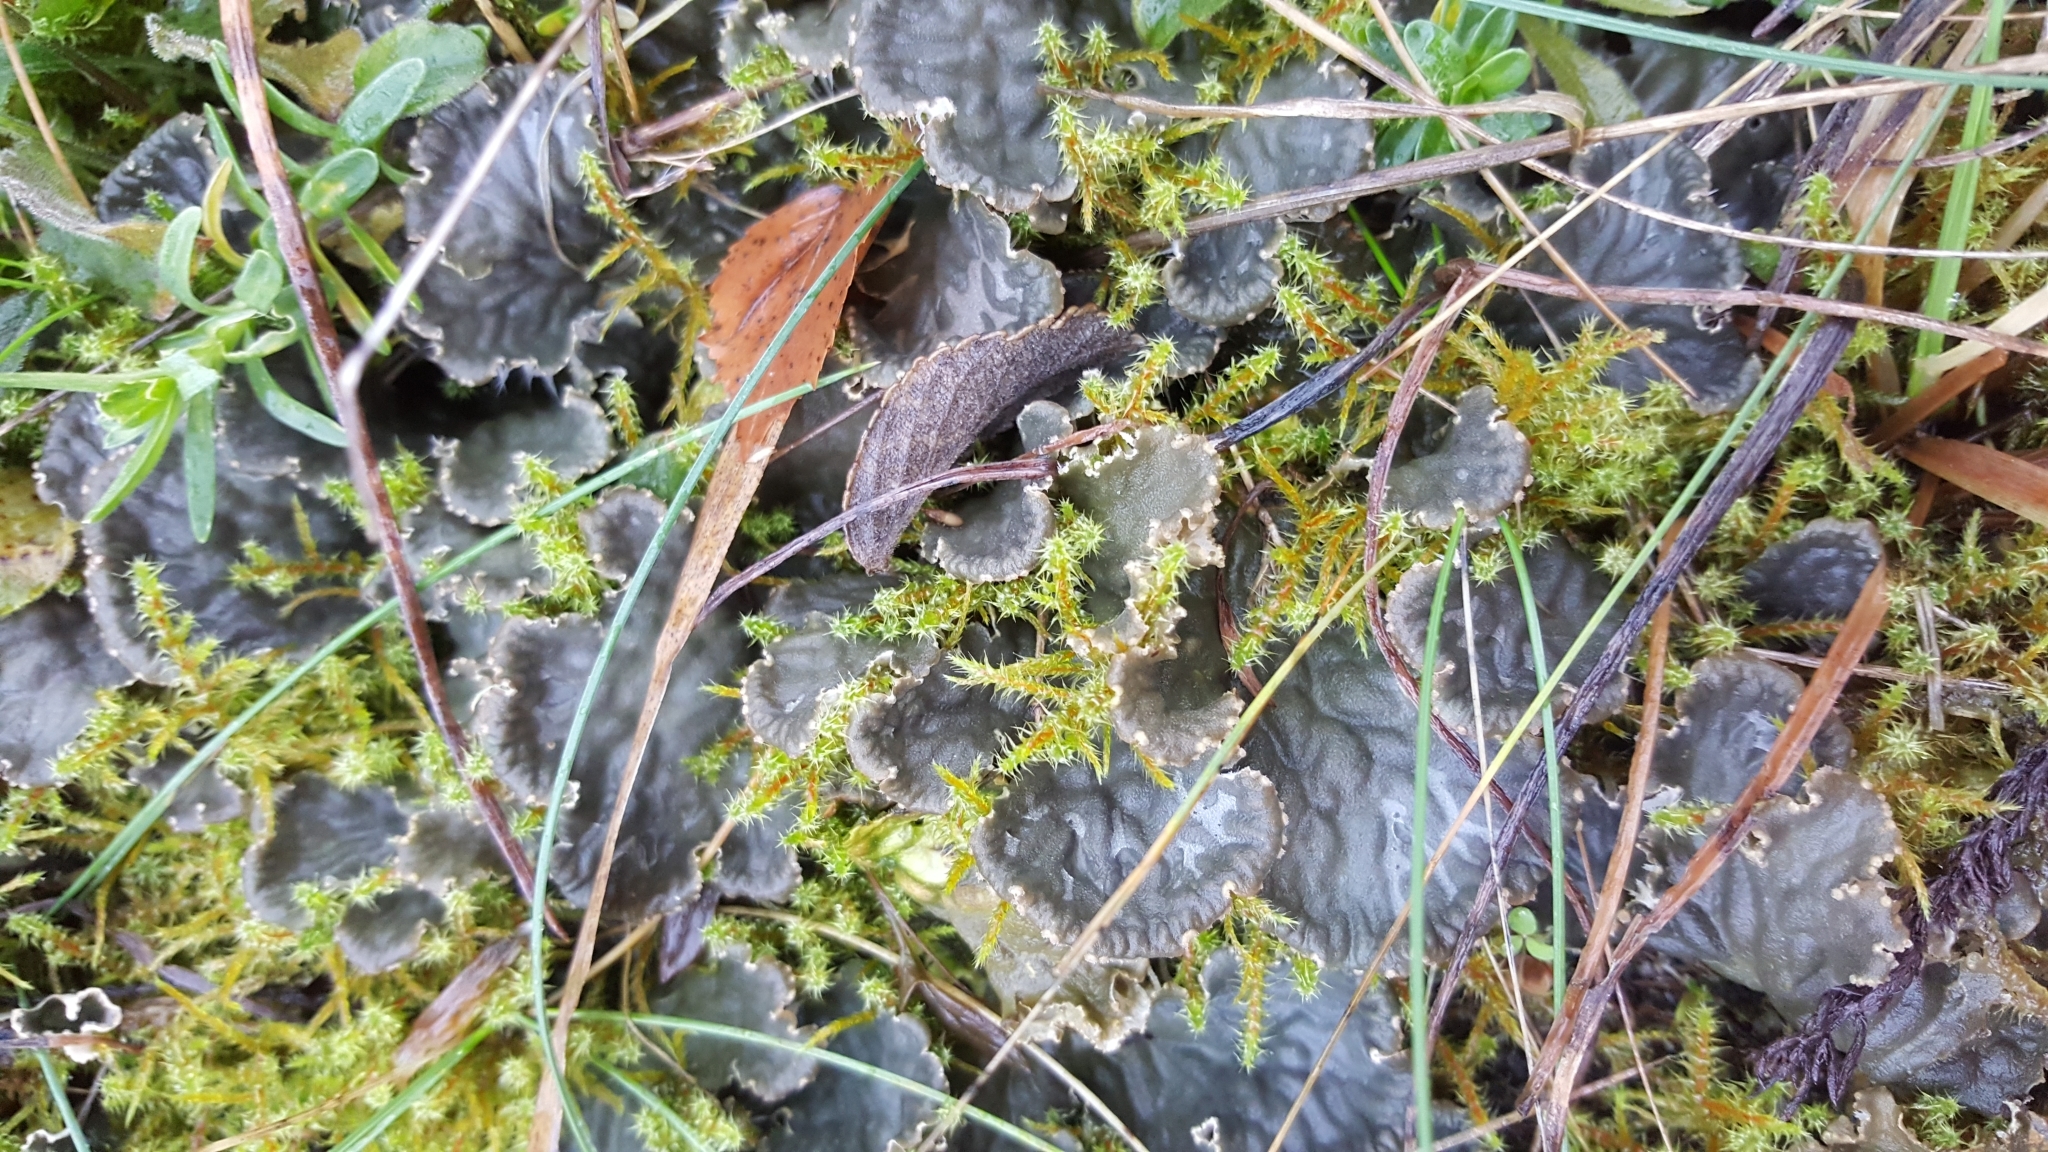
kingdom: Fungi
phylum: Ascomycota
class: Lecanoromycetes
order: Peltigerales
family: Peltigeraceae
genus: Peltigera
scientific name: Peltigera
